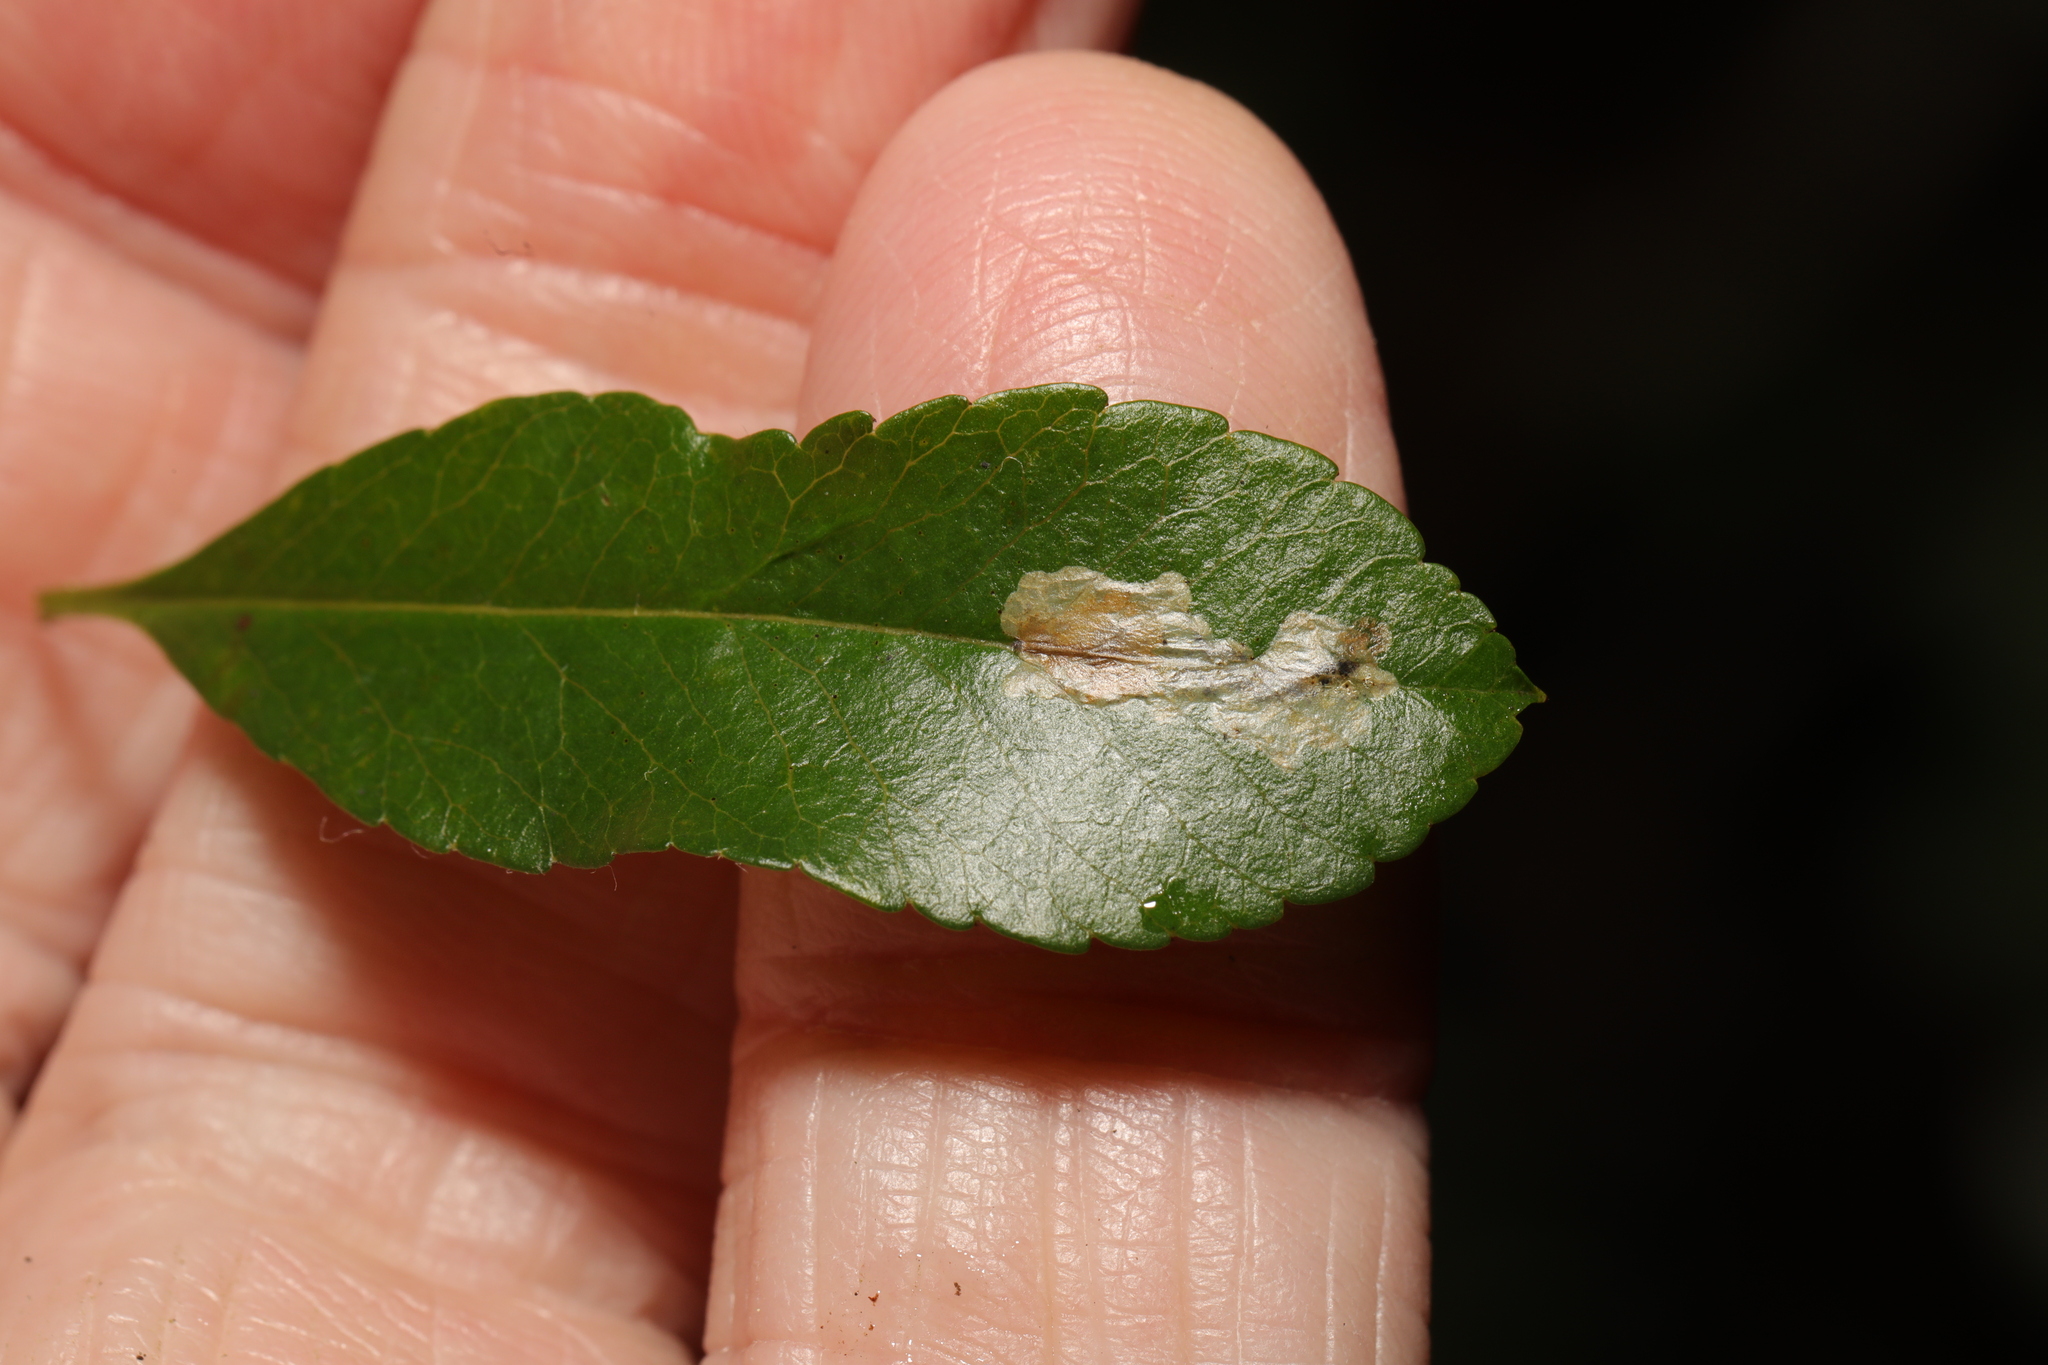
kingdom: Animalia
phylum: Arthropoda
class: Insecta
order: Lepidoptera
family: Gracillariidae
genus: Phyllonorycter
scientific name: Phyllonorycter leucographella
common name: Firethorn leaf-miner
